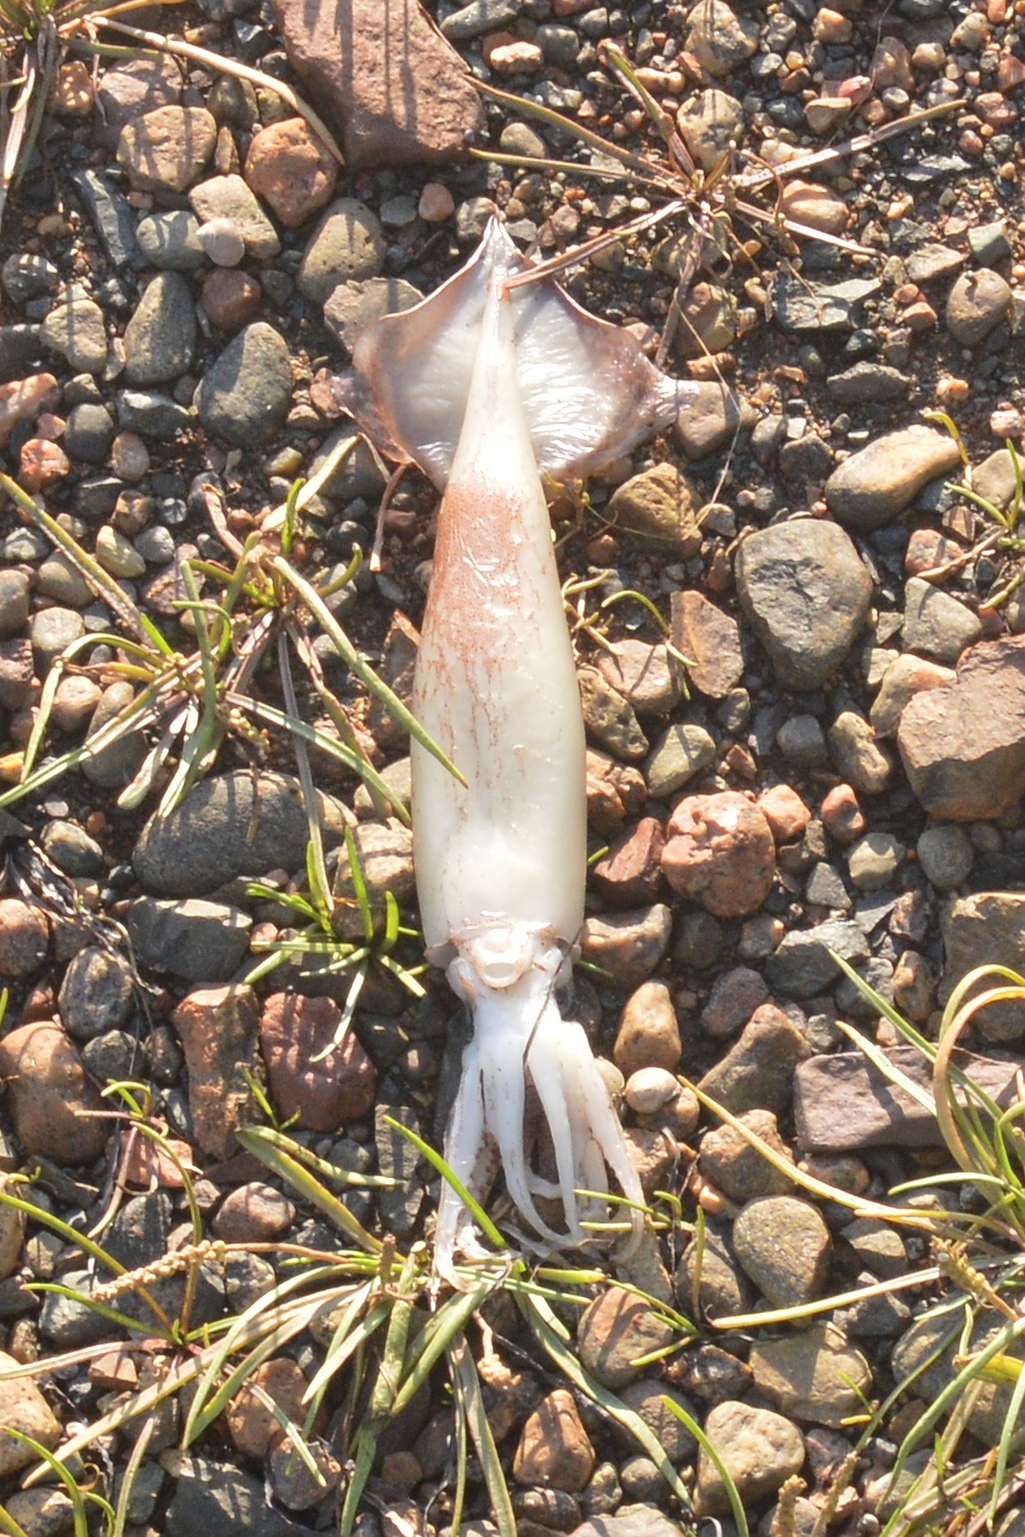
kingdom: Animalia
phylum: Mollusca
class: Cephalopoda
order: Oegopsida
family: Ommastrephidae
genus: Illex
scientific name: Illex illecebrosus
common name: Boreal squid
